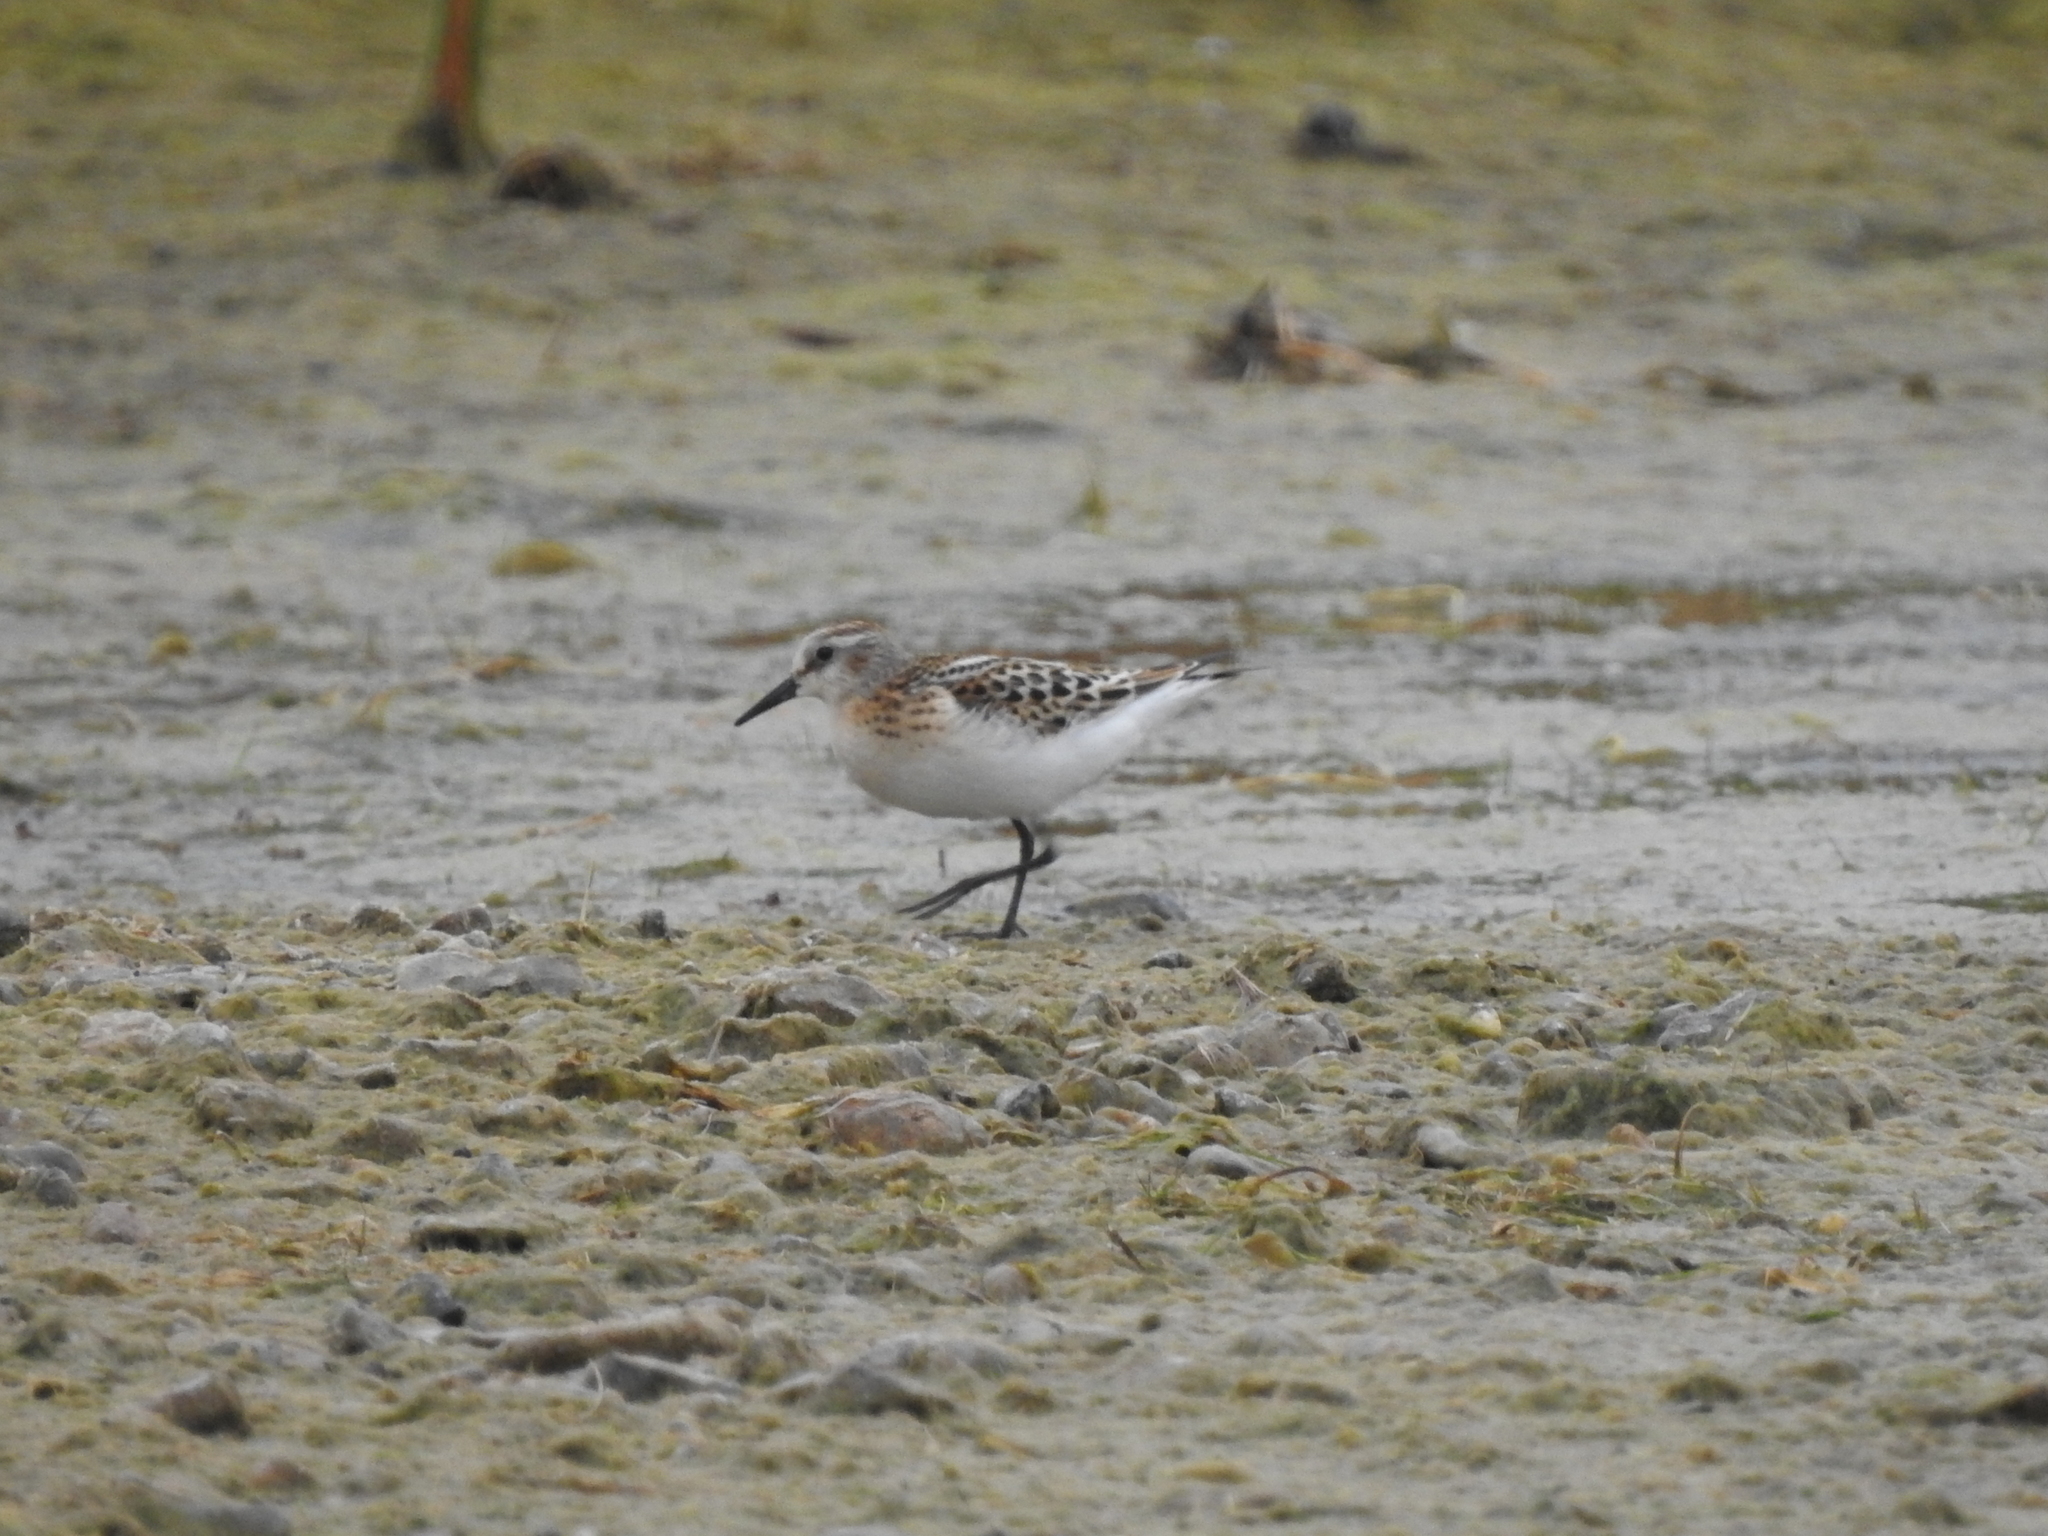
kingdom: Animalia
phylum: Chordata
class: Aves
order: Charadriiformes
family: Scolopacidae
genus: Calidris
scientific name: Calidris minuta
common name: Little stint
